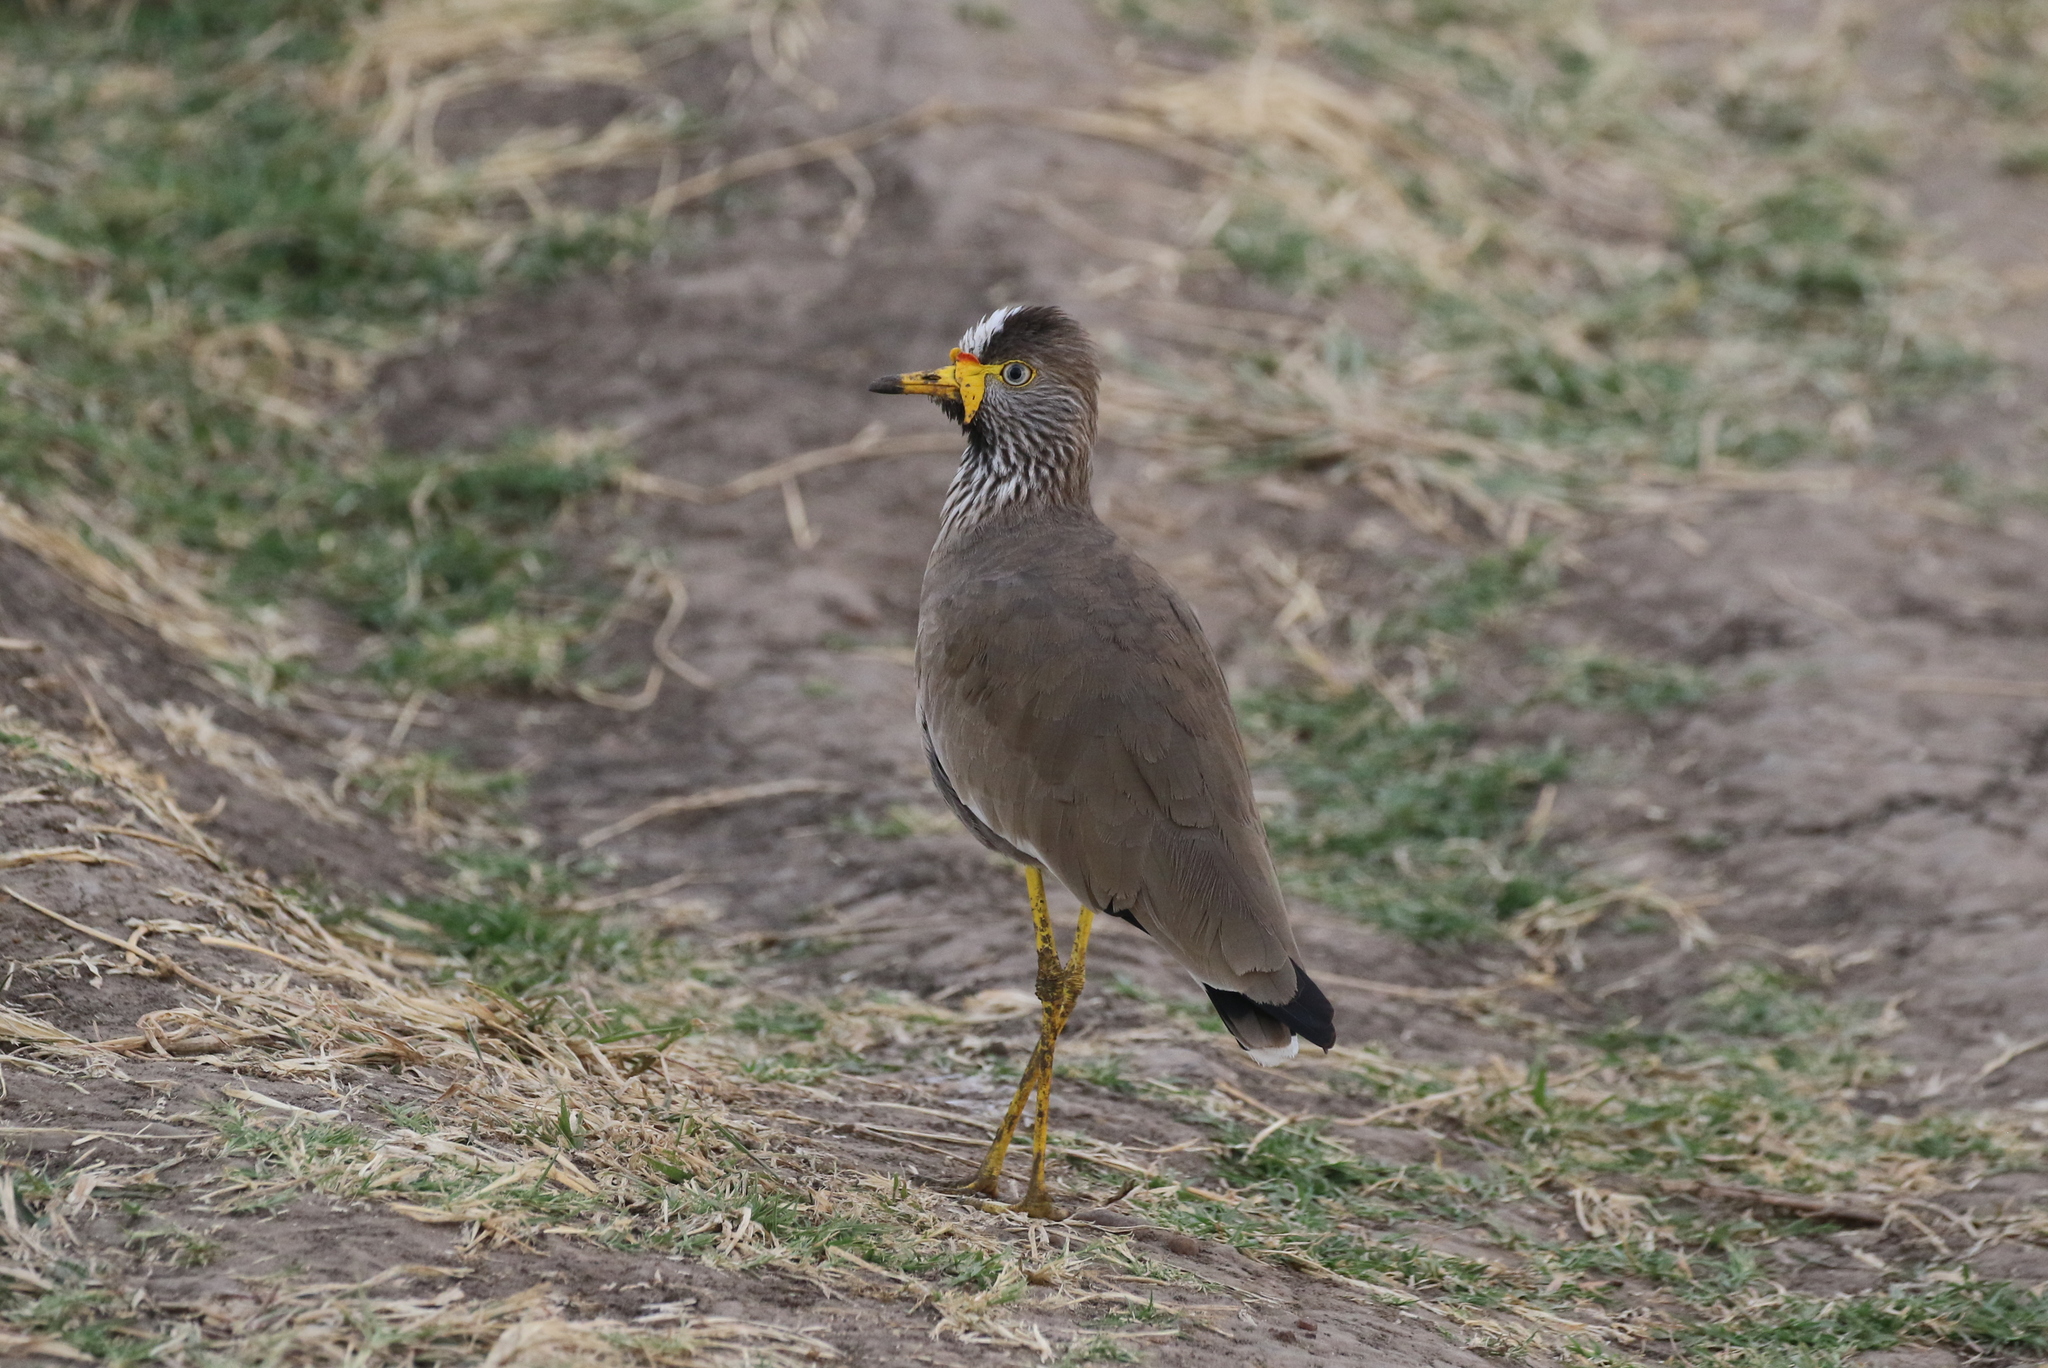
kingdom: Animalia
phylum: Chordata
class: Aves
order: Charadriiformes
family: Charadriidae
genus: Vanellus
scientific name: Vanellus senegallus
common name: African wattled lapwing
